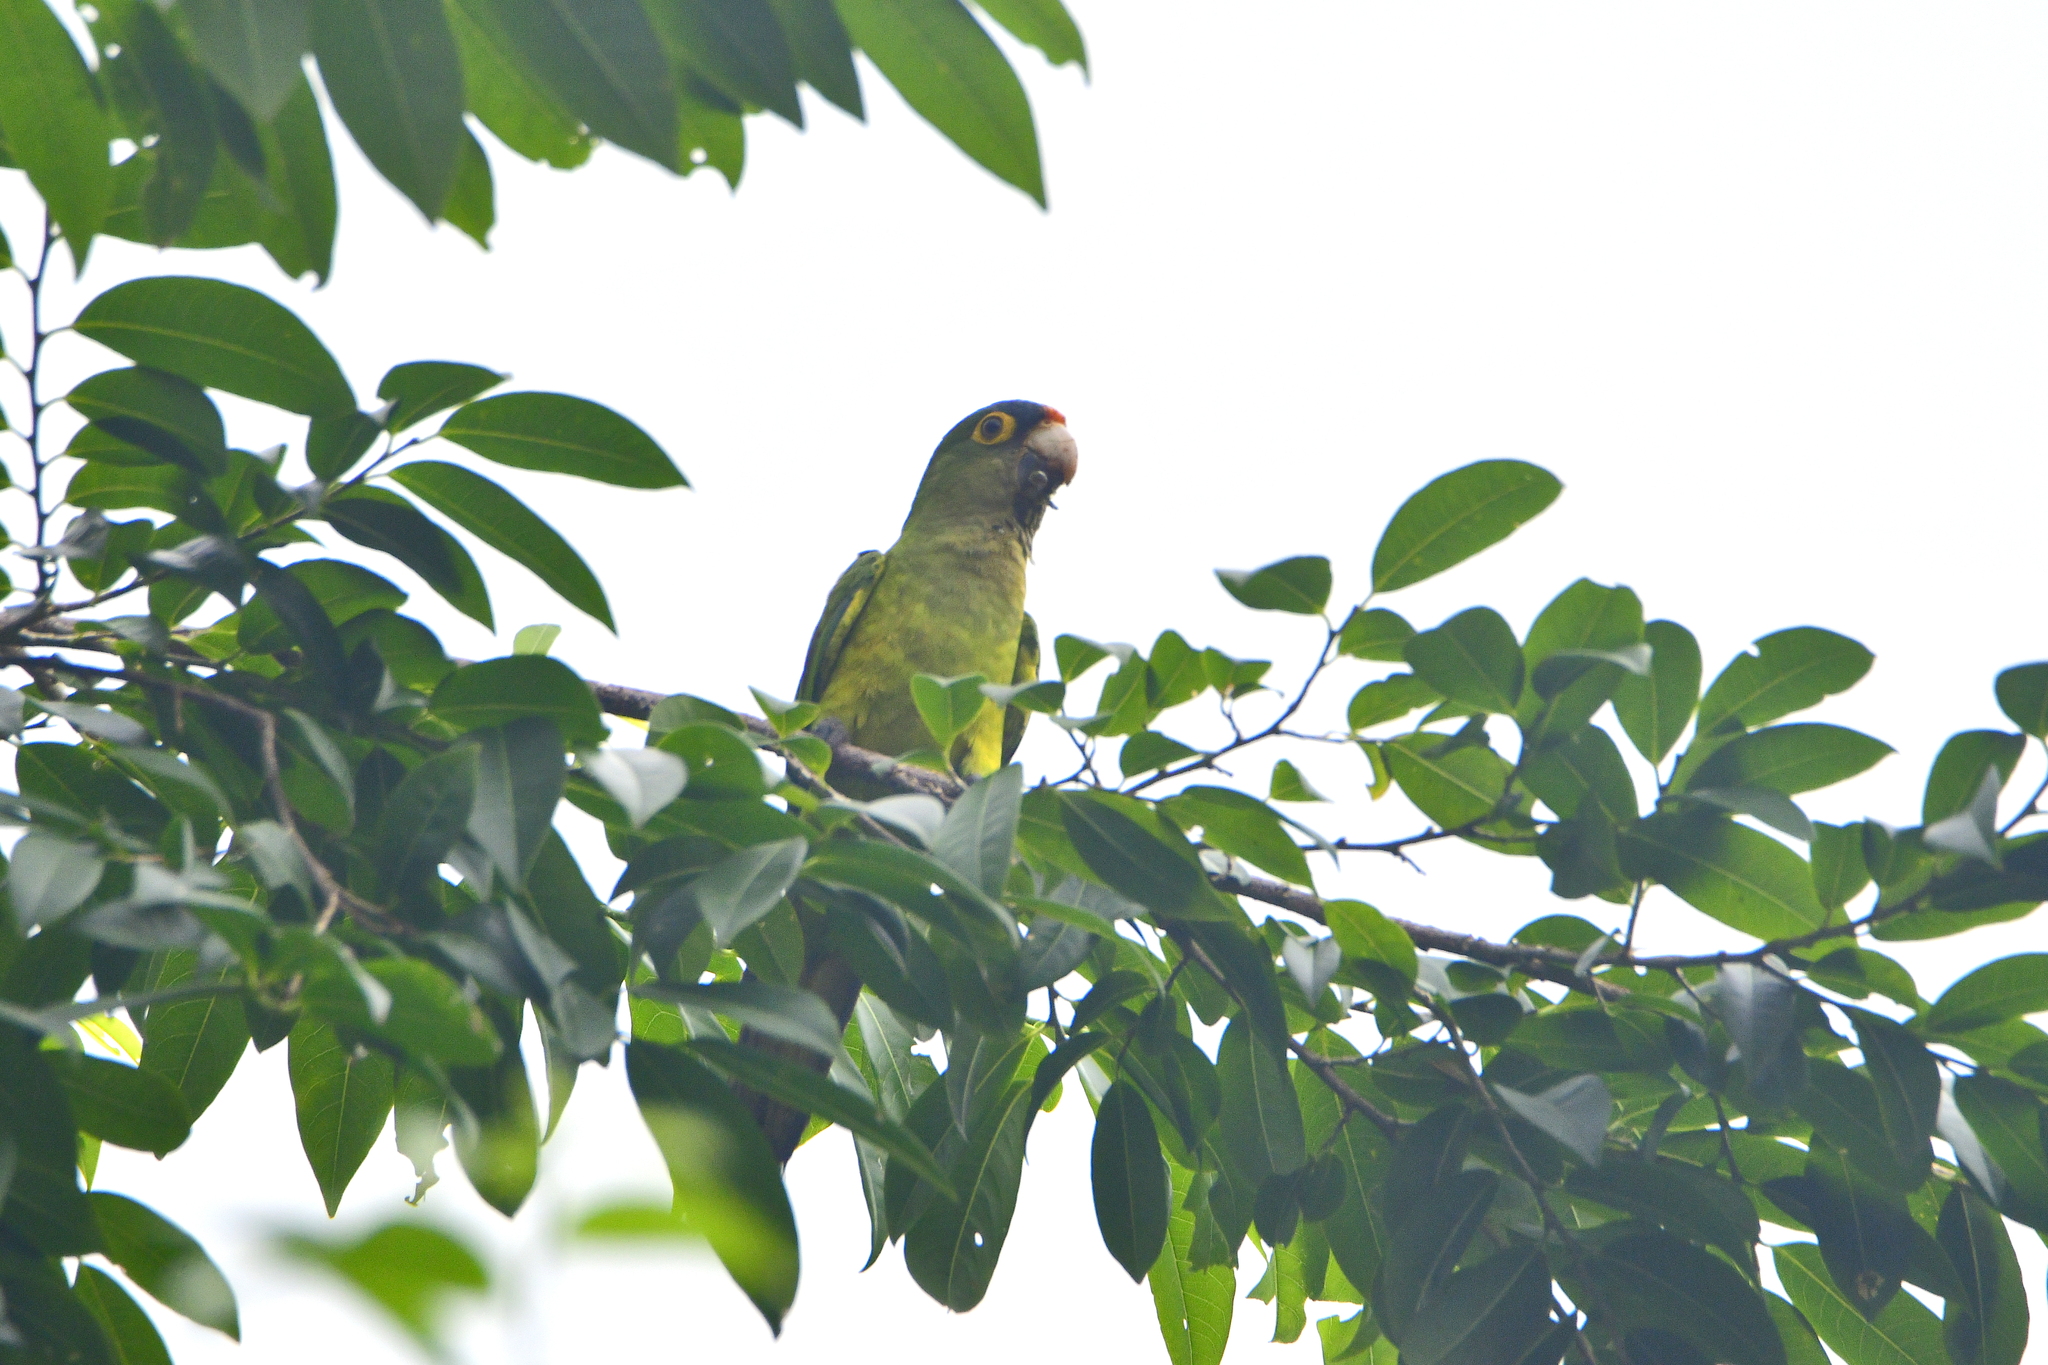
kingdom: Animalia
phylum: Chordata
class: Aves
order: Psittaciformes
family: Psittacidae
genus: Aratinga
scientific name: Aratinga canicularis
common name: Orange-fronted parakeet
